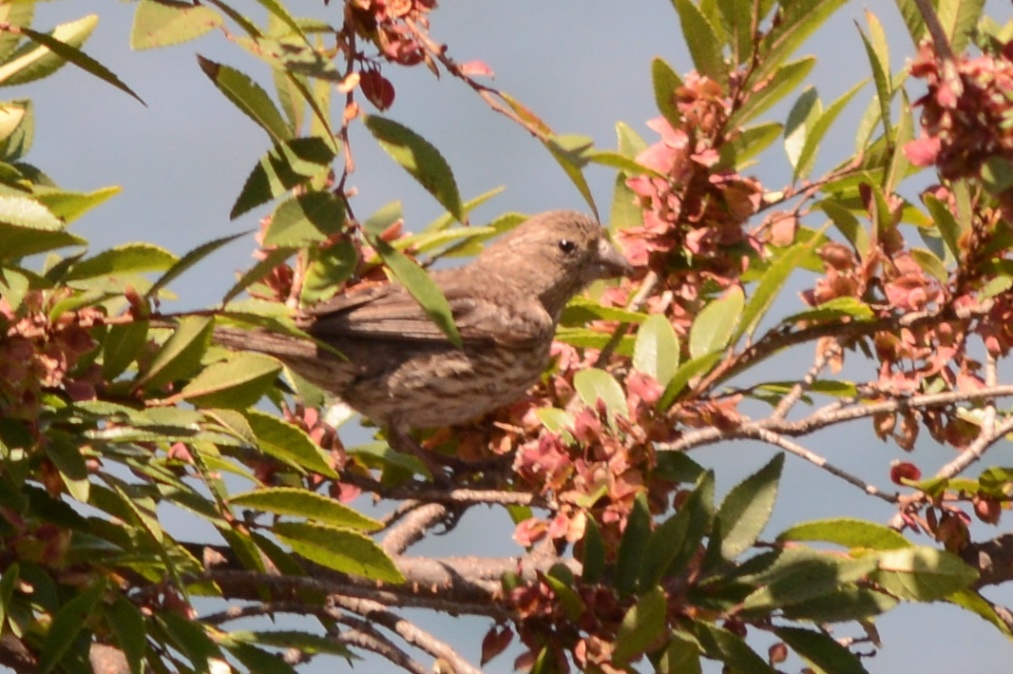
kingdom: Animalia
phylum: Chordata
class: Aves
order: Passeriformes
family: Fringillidae
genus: Haemorhous
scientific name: Haemorhous mexicanus
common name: House finch
